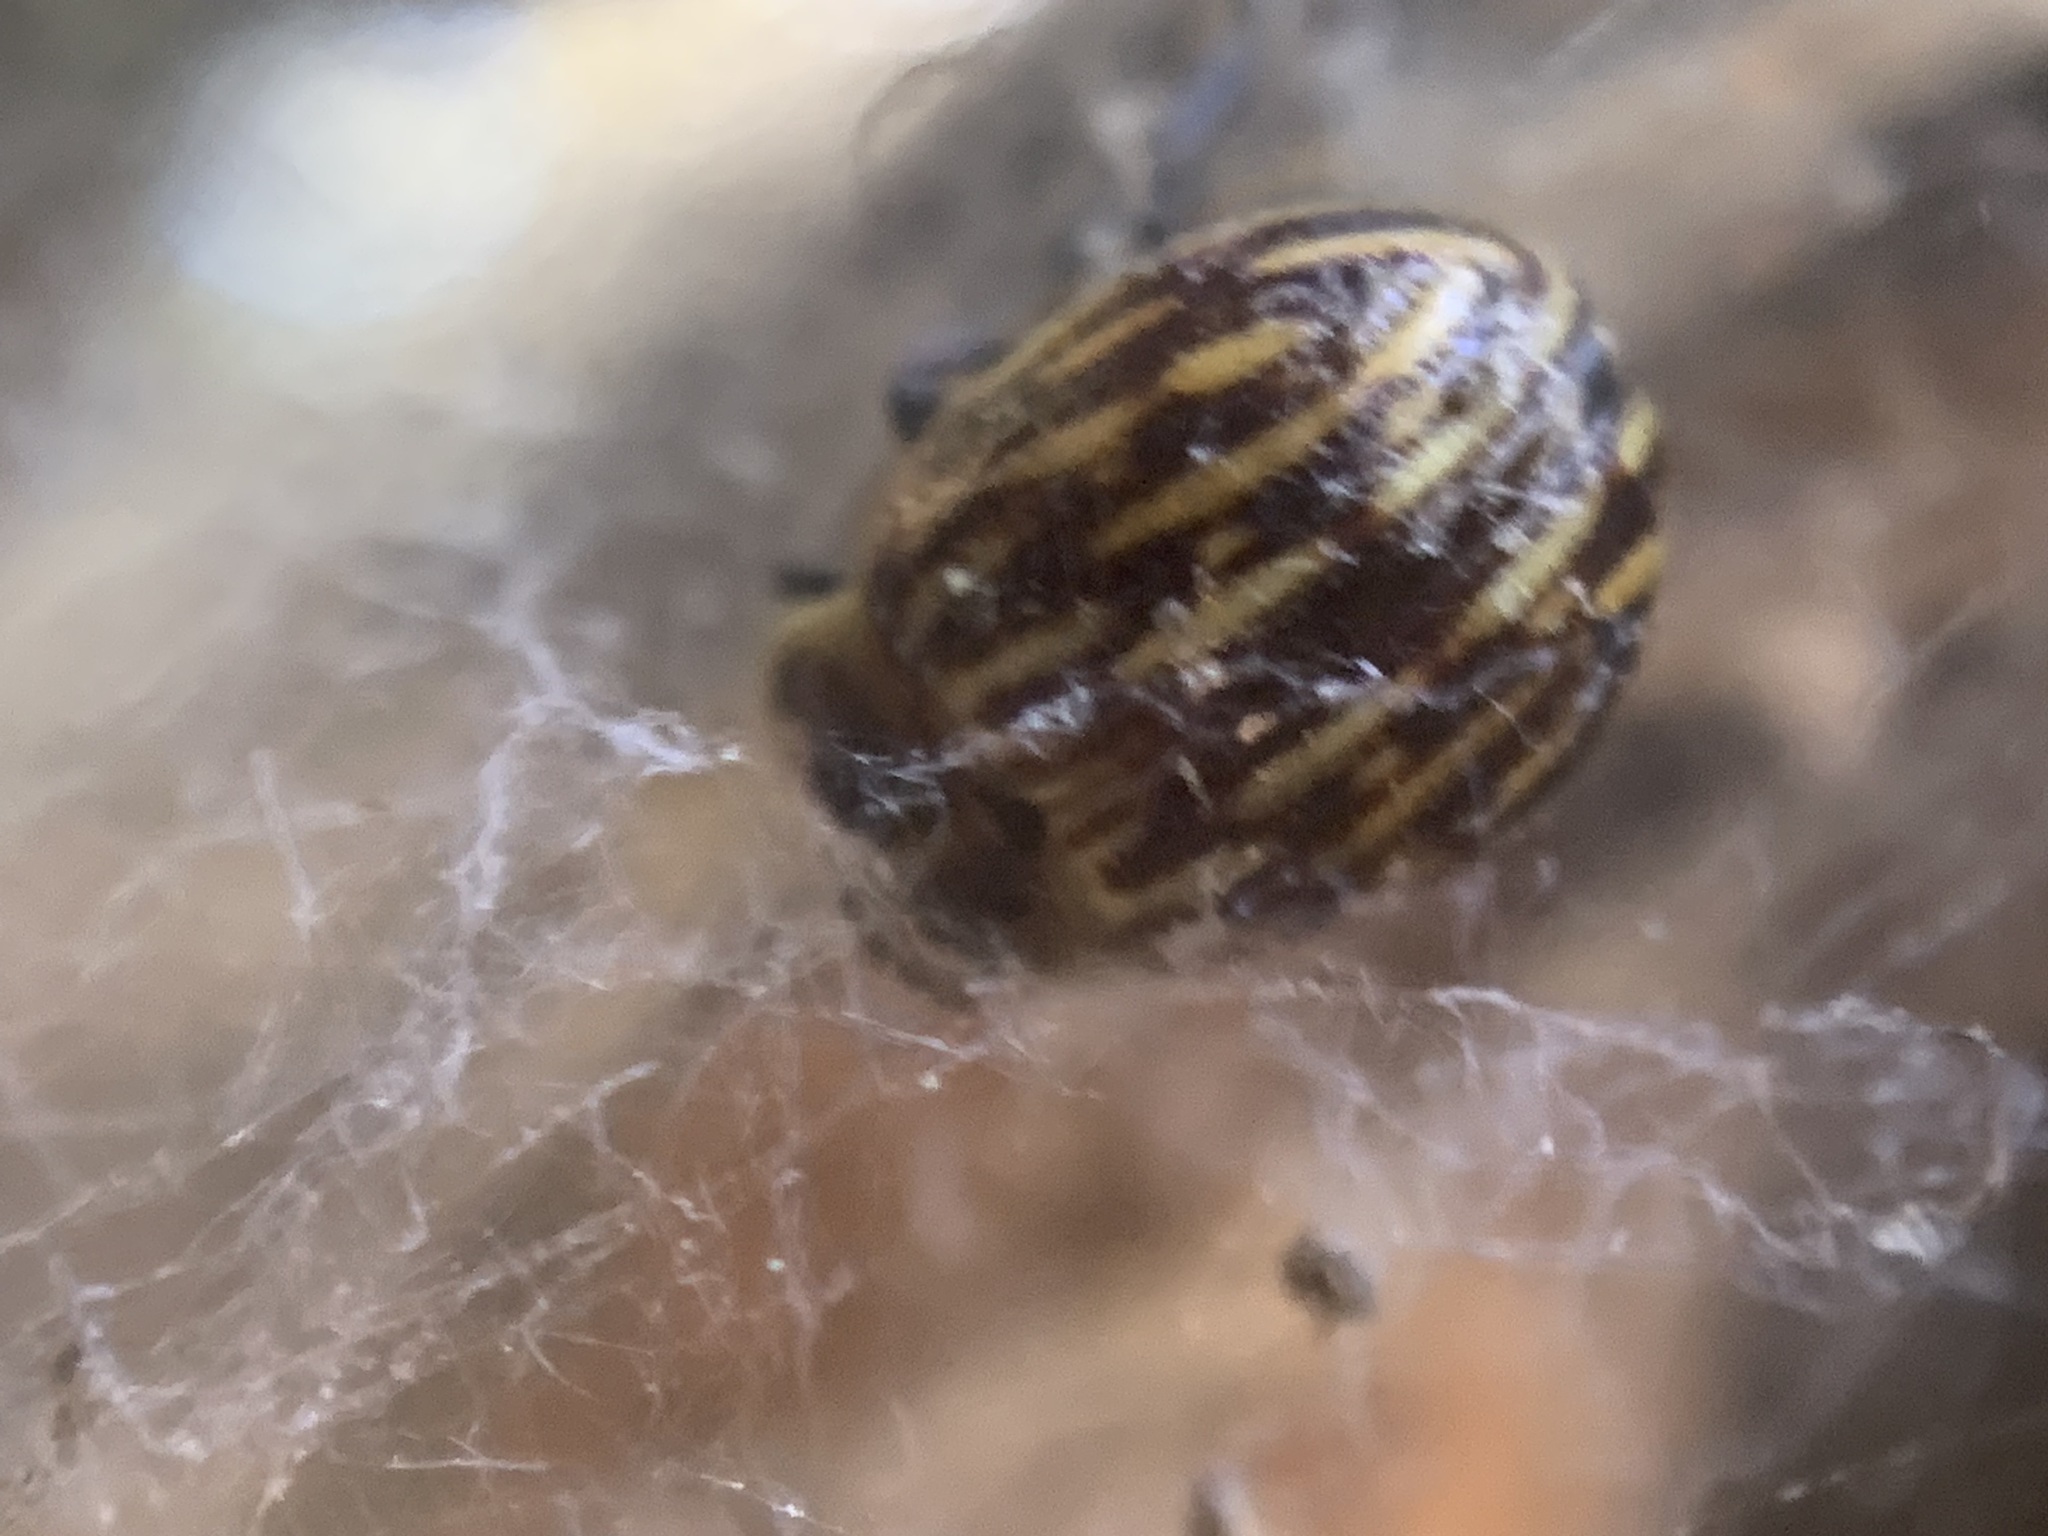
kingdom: Animalia
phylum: Arthropoda
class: Insecta
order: Coleoptera
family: Chrysomelidae
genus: Strichosa
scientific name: Strichosa
